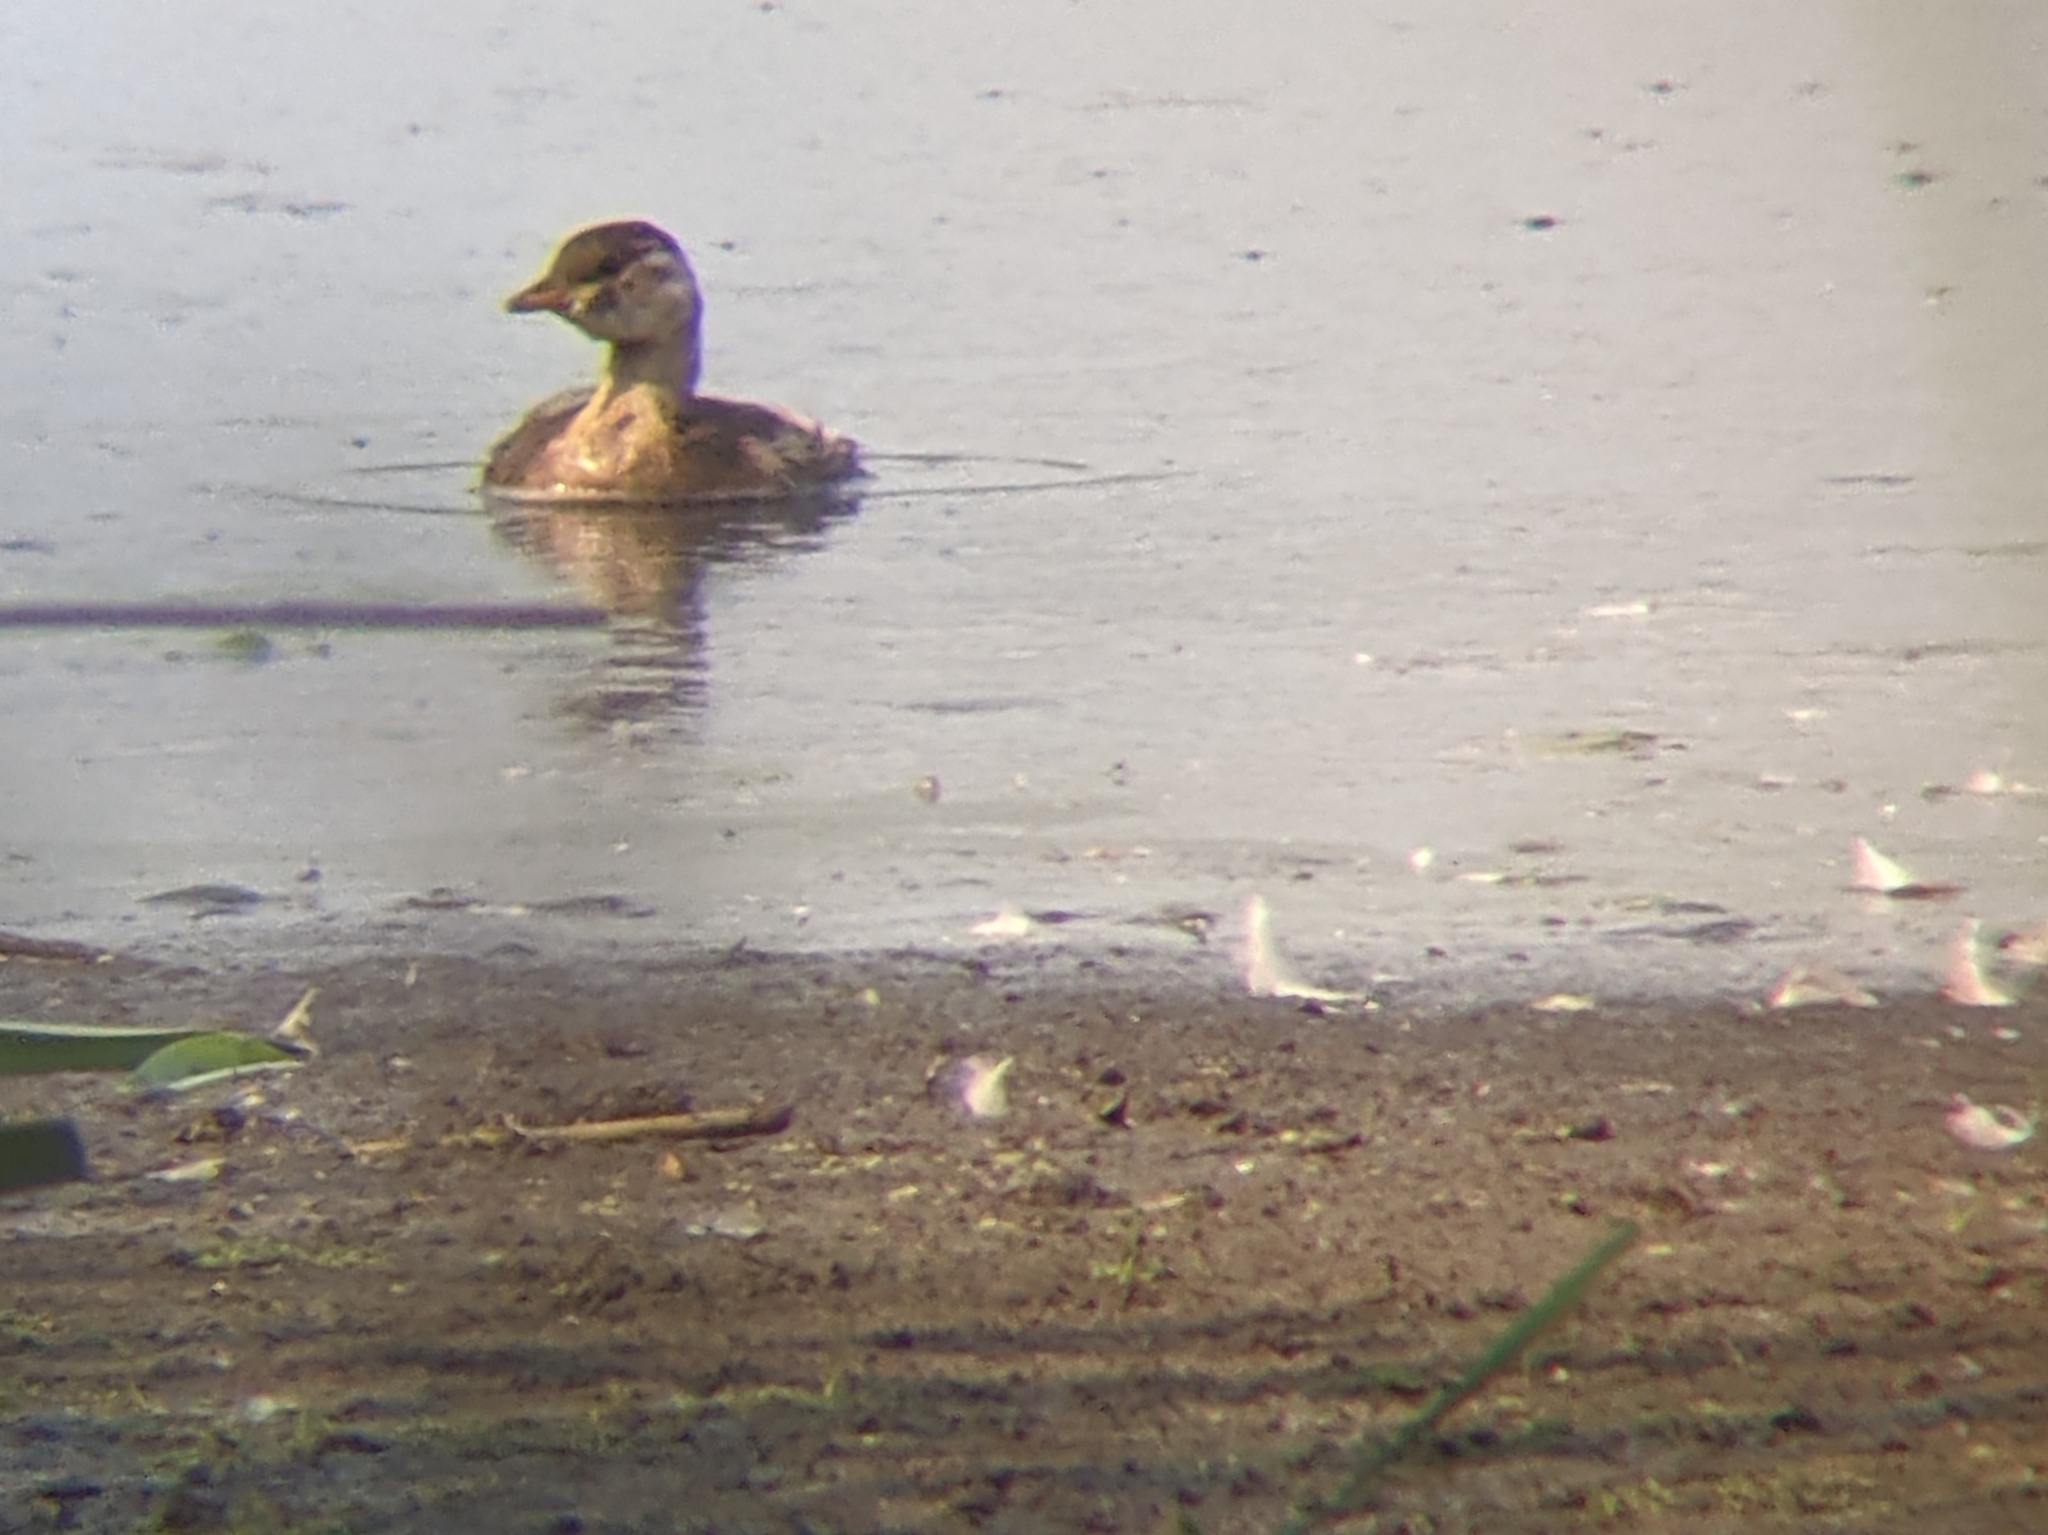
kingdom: Animalia
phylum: Chordata
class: Aves
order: Podicipediformes
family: Podicipedidae
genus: Tachybaptus
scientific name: Tachybaptus ruficollis
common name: Little grebe
